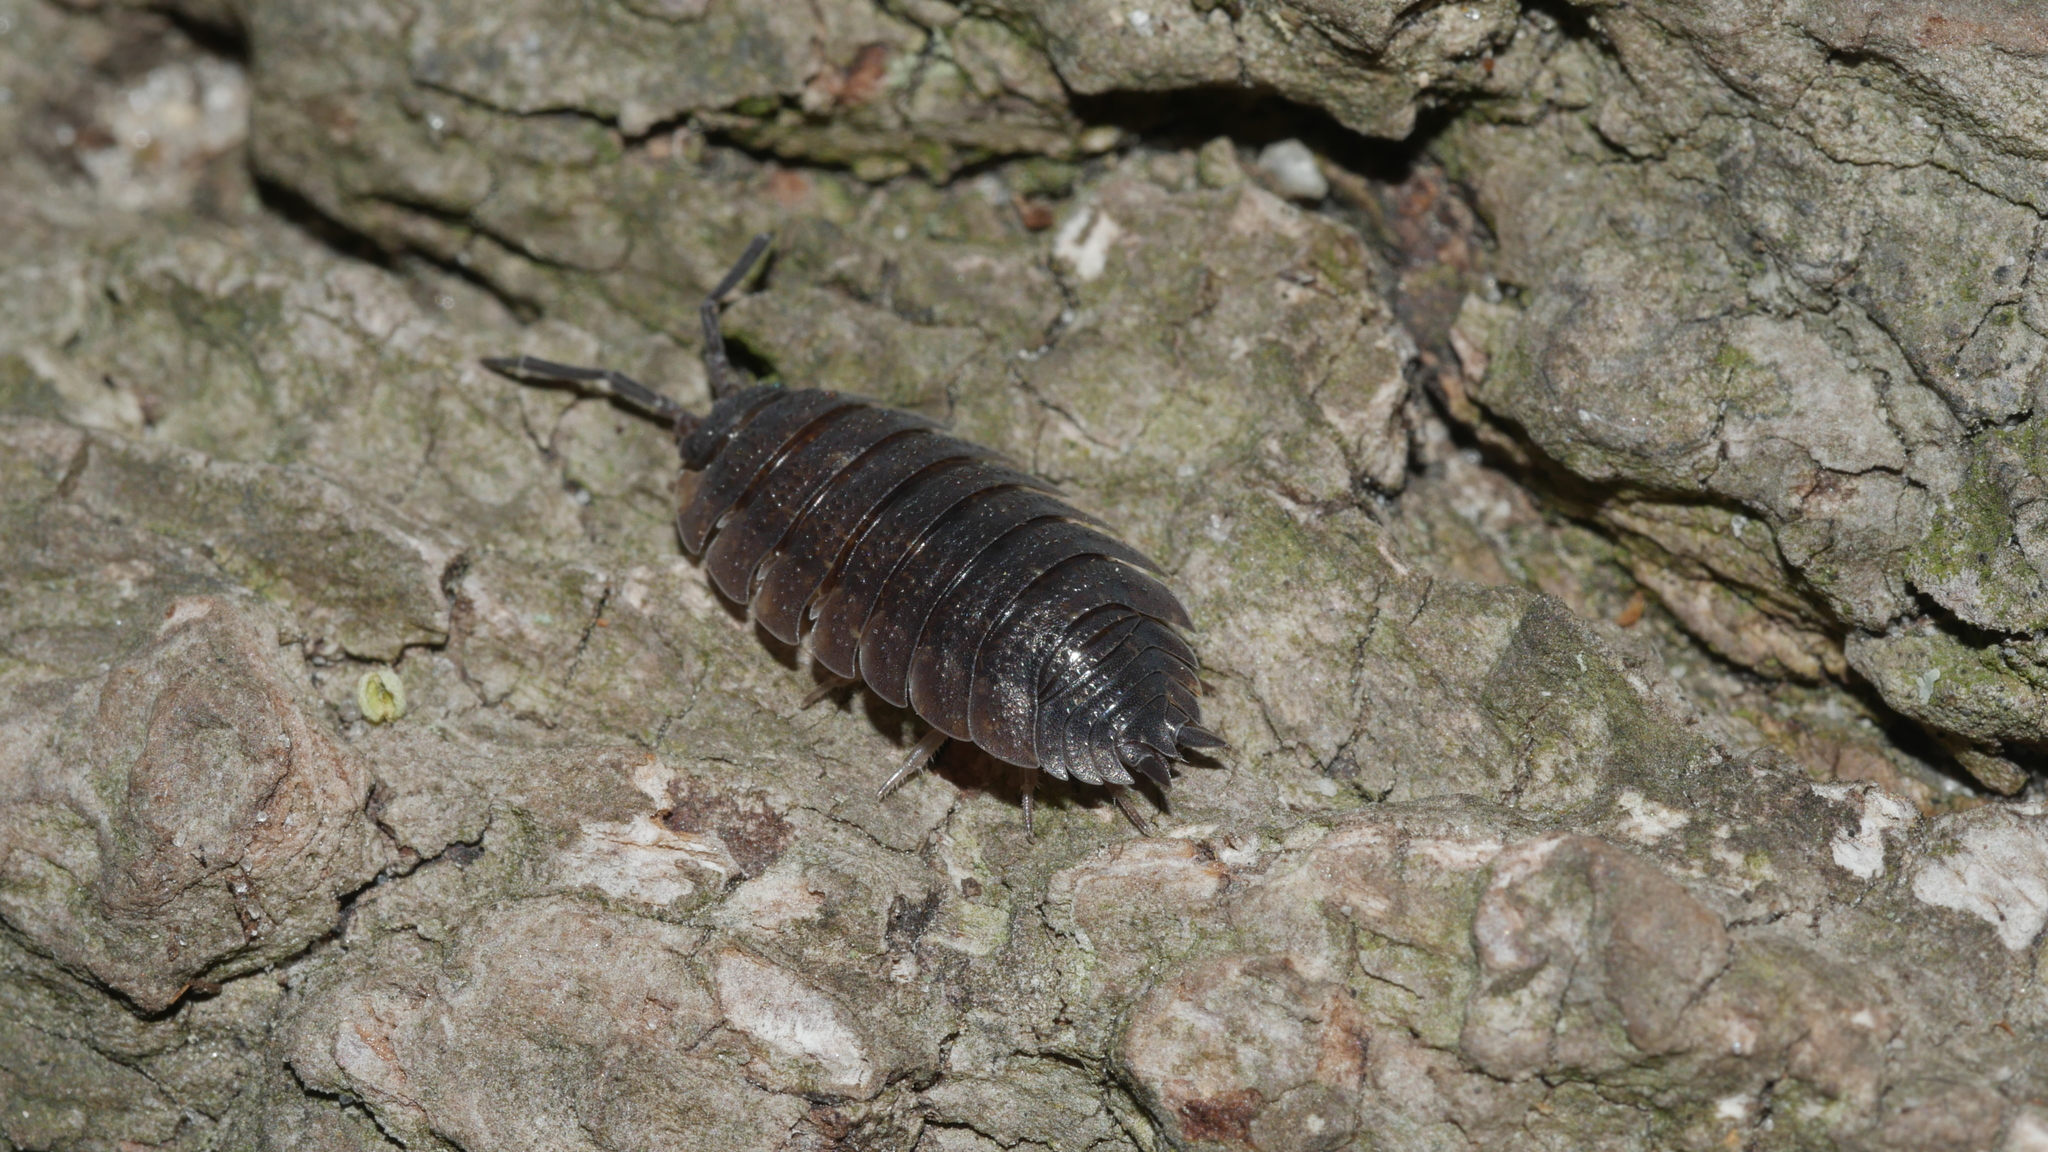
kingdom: Animalia
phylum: Arthropoda
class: Malacostraca
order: Isopoda
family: Porcellionidae
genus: Porcellio
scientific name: Porcellio scaber
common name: Common rough woodlouse
